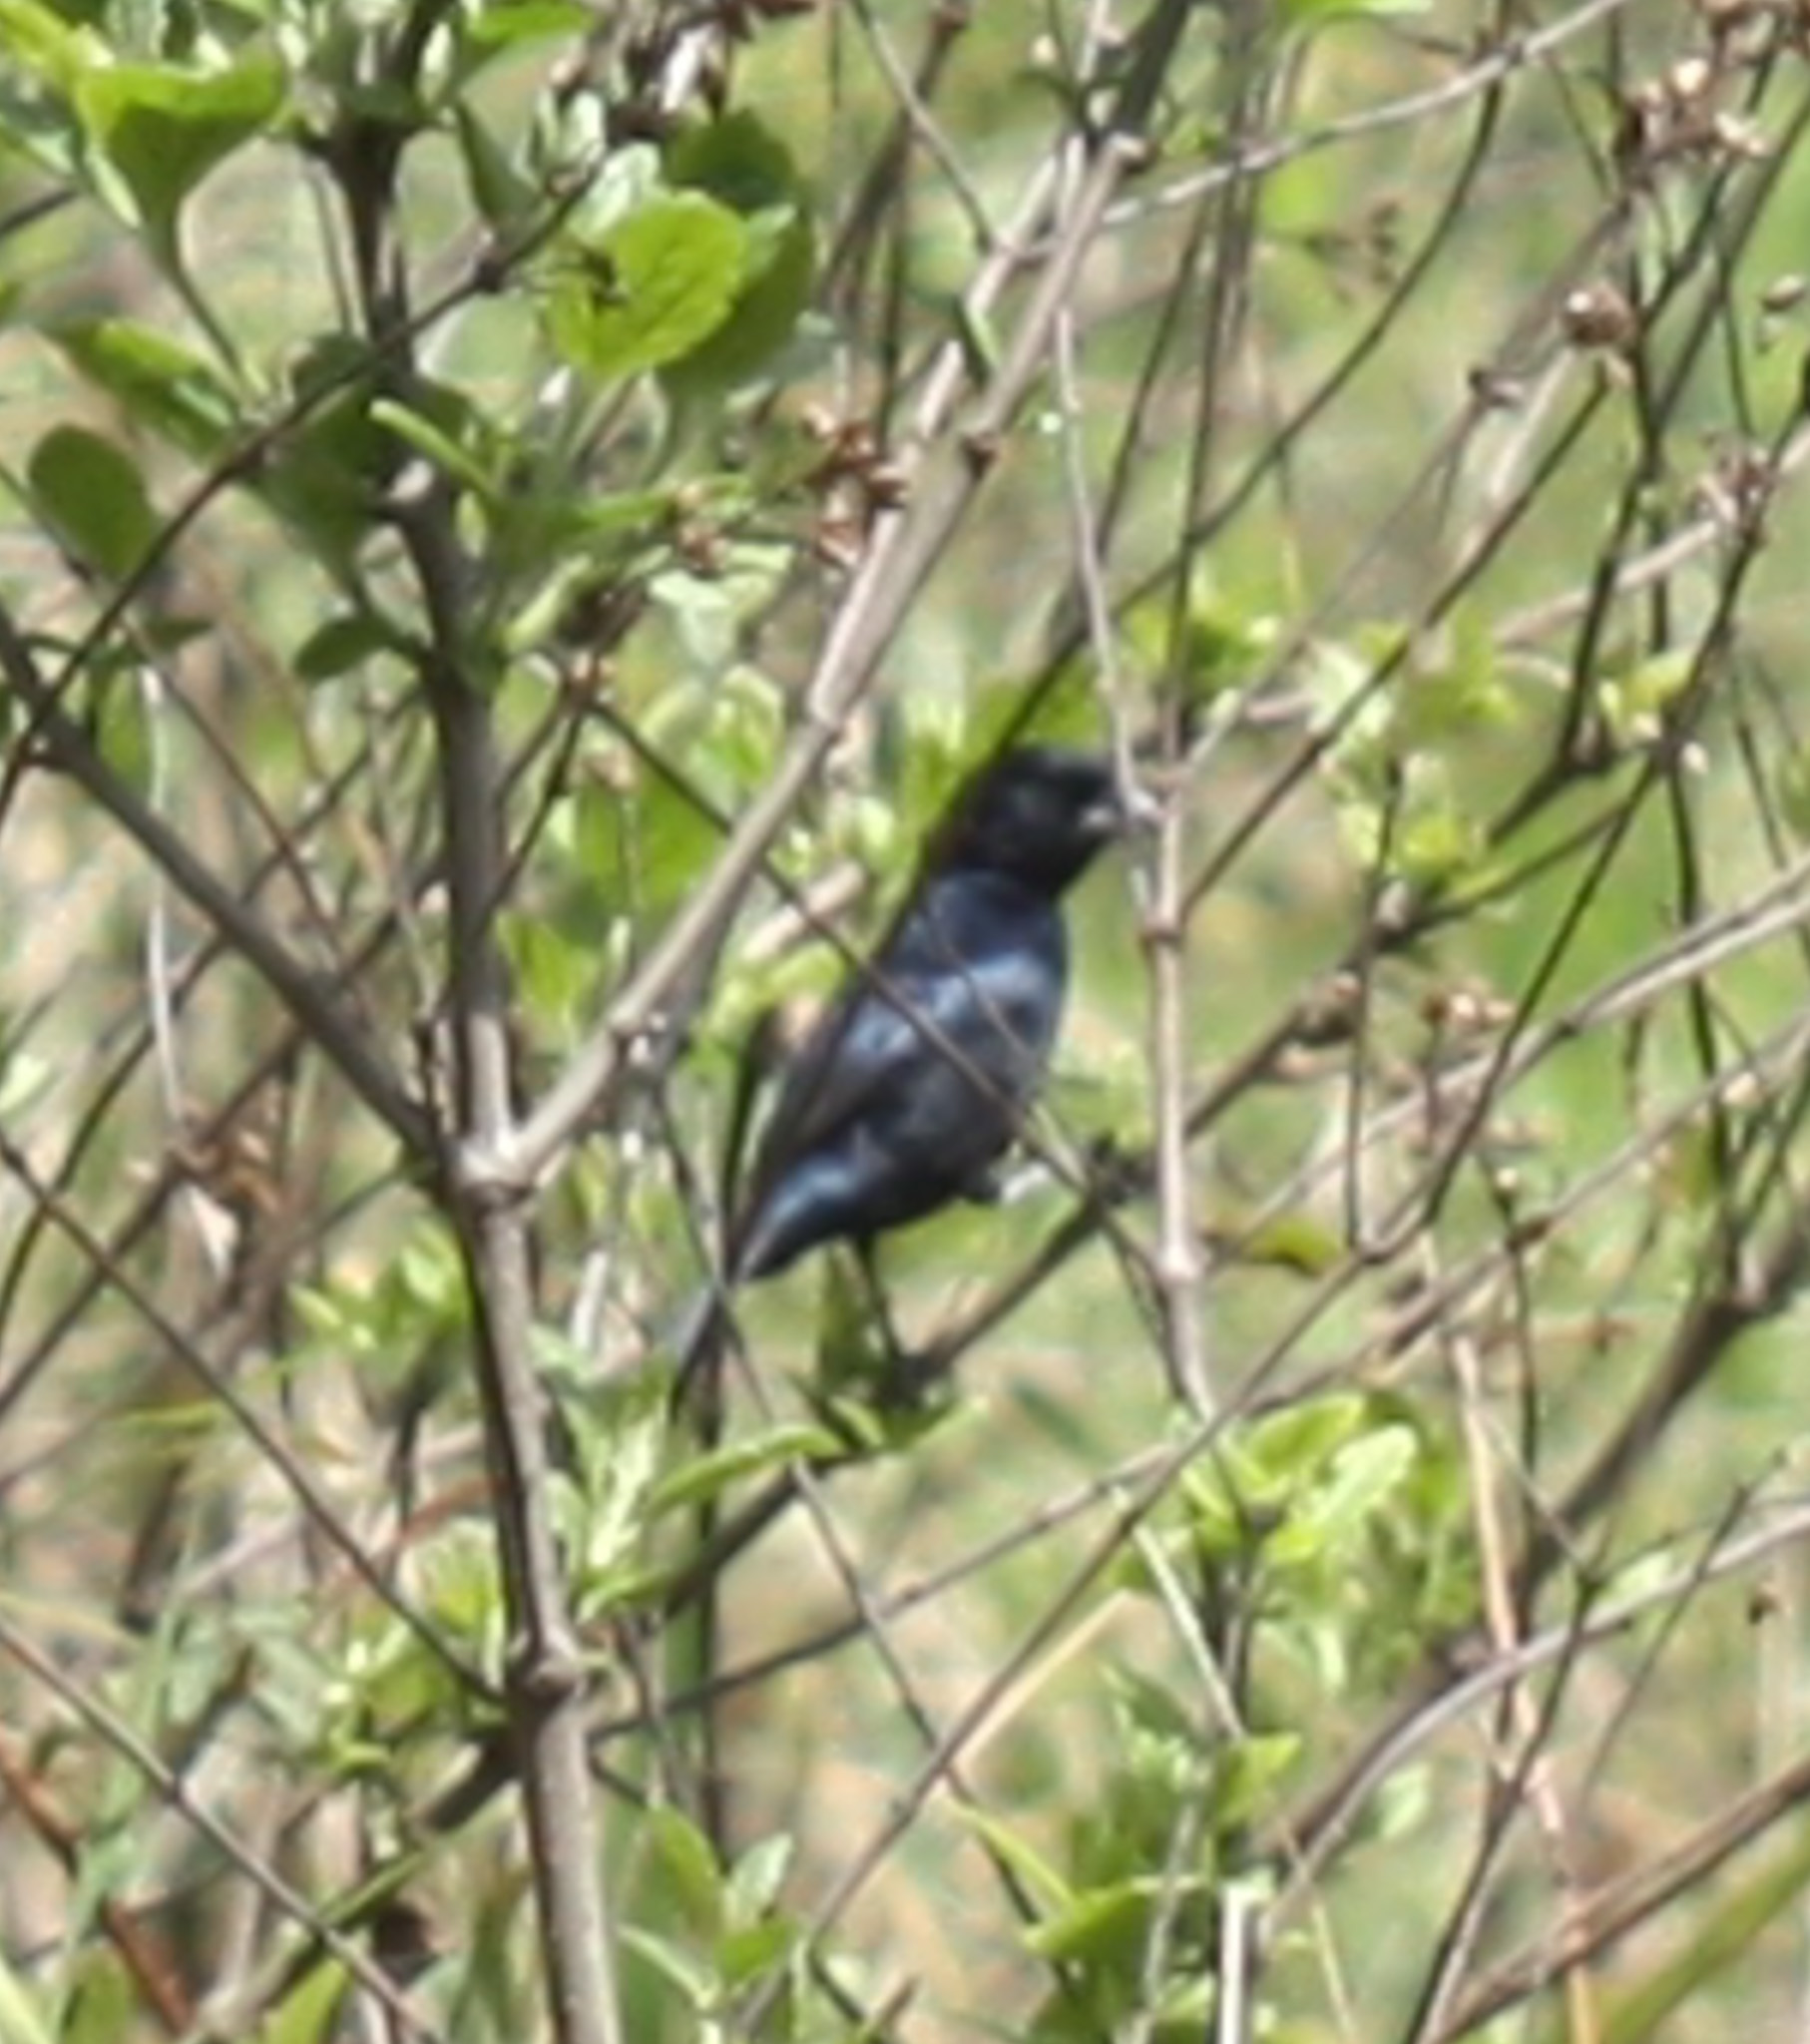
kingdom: Animalia
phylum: Chordata
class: Aves
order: Passeriformes
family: Thraupidae
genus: Volatinia
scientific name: Volatinia jacarina
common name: Blue-black grassquit
